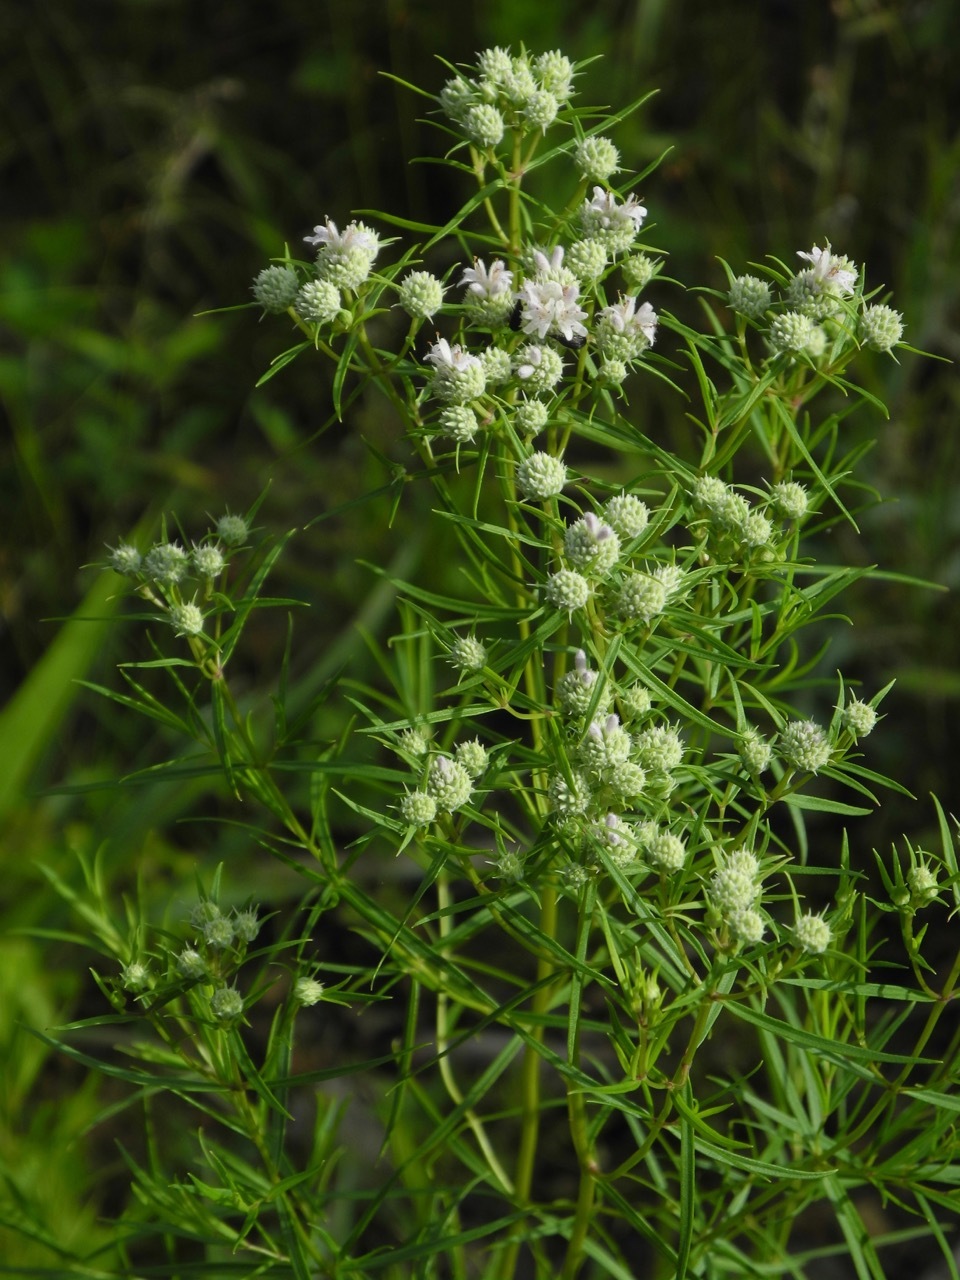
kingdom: Plantae
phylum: Tracheophyta
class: Magnoliopsida
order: Lamiales
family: Lamiaceae
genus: Pycnanthemum
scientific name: Pycnanthemum tenuifolium
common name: Narrow-leaf mountain-mint
